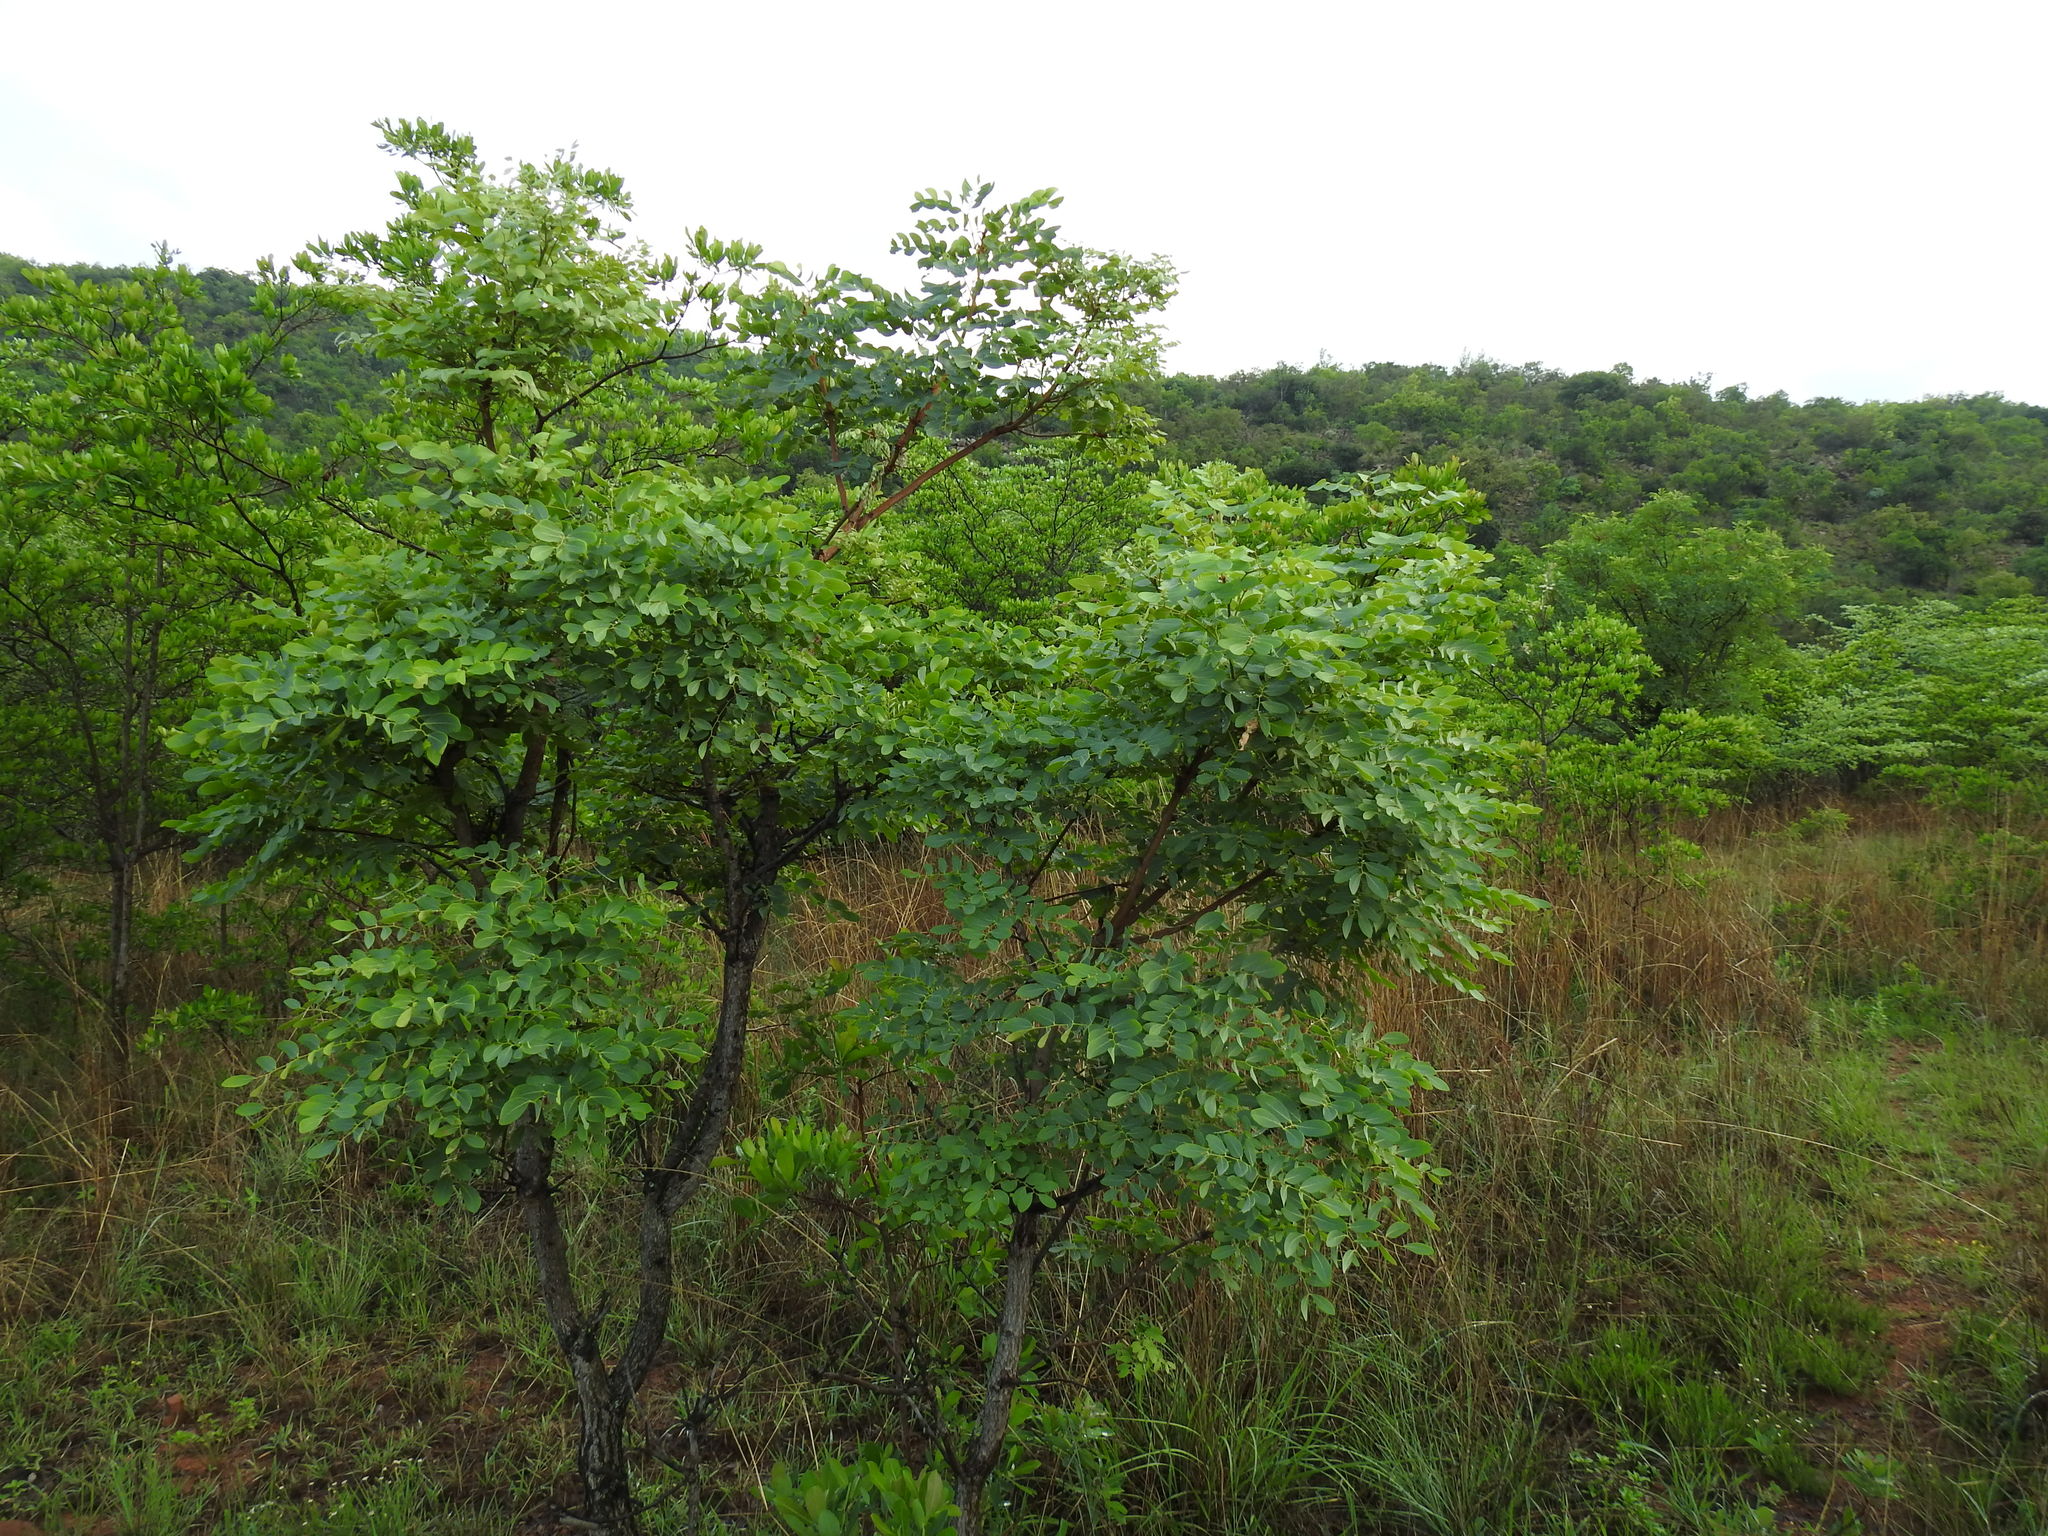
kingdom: Plantae
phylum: Tracheophyta
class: Magnoliopsida
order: Fabales
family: Fabaceae
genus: Burkea
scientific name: Burkea africana
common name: Mkalati tree
